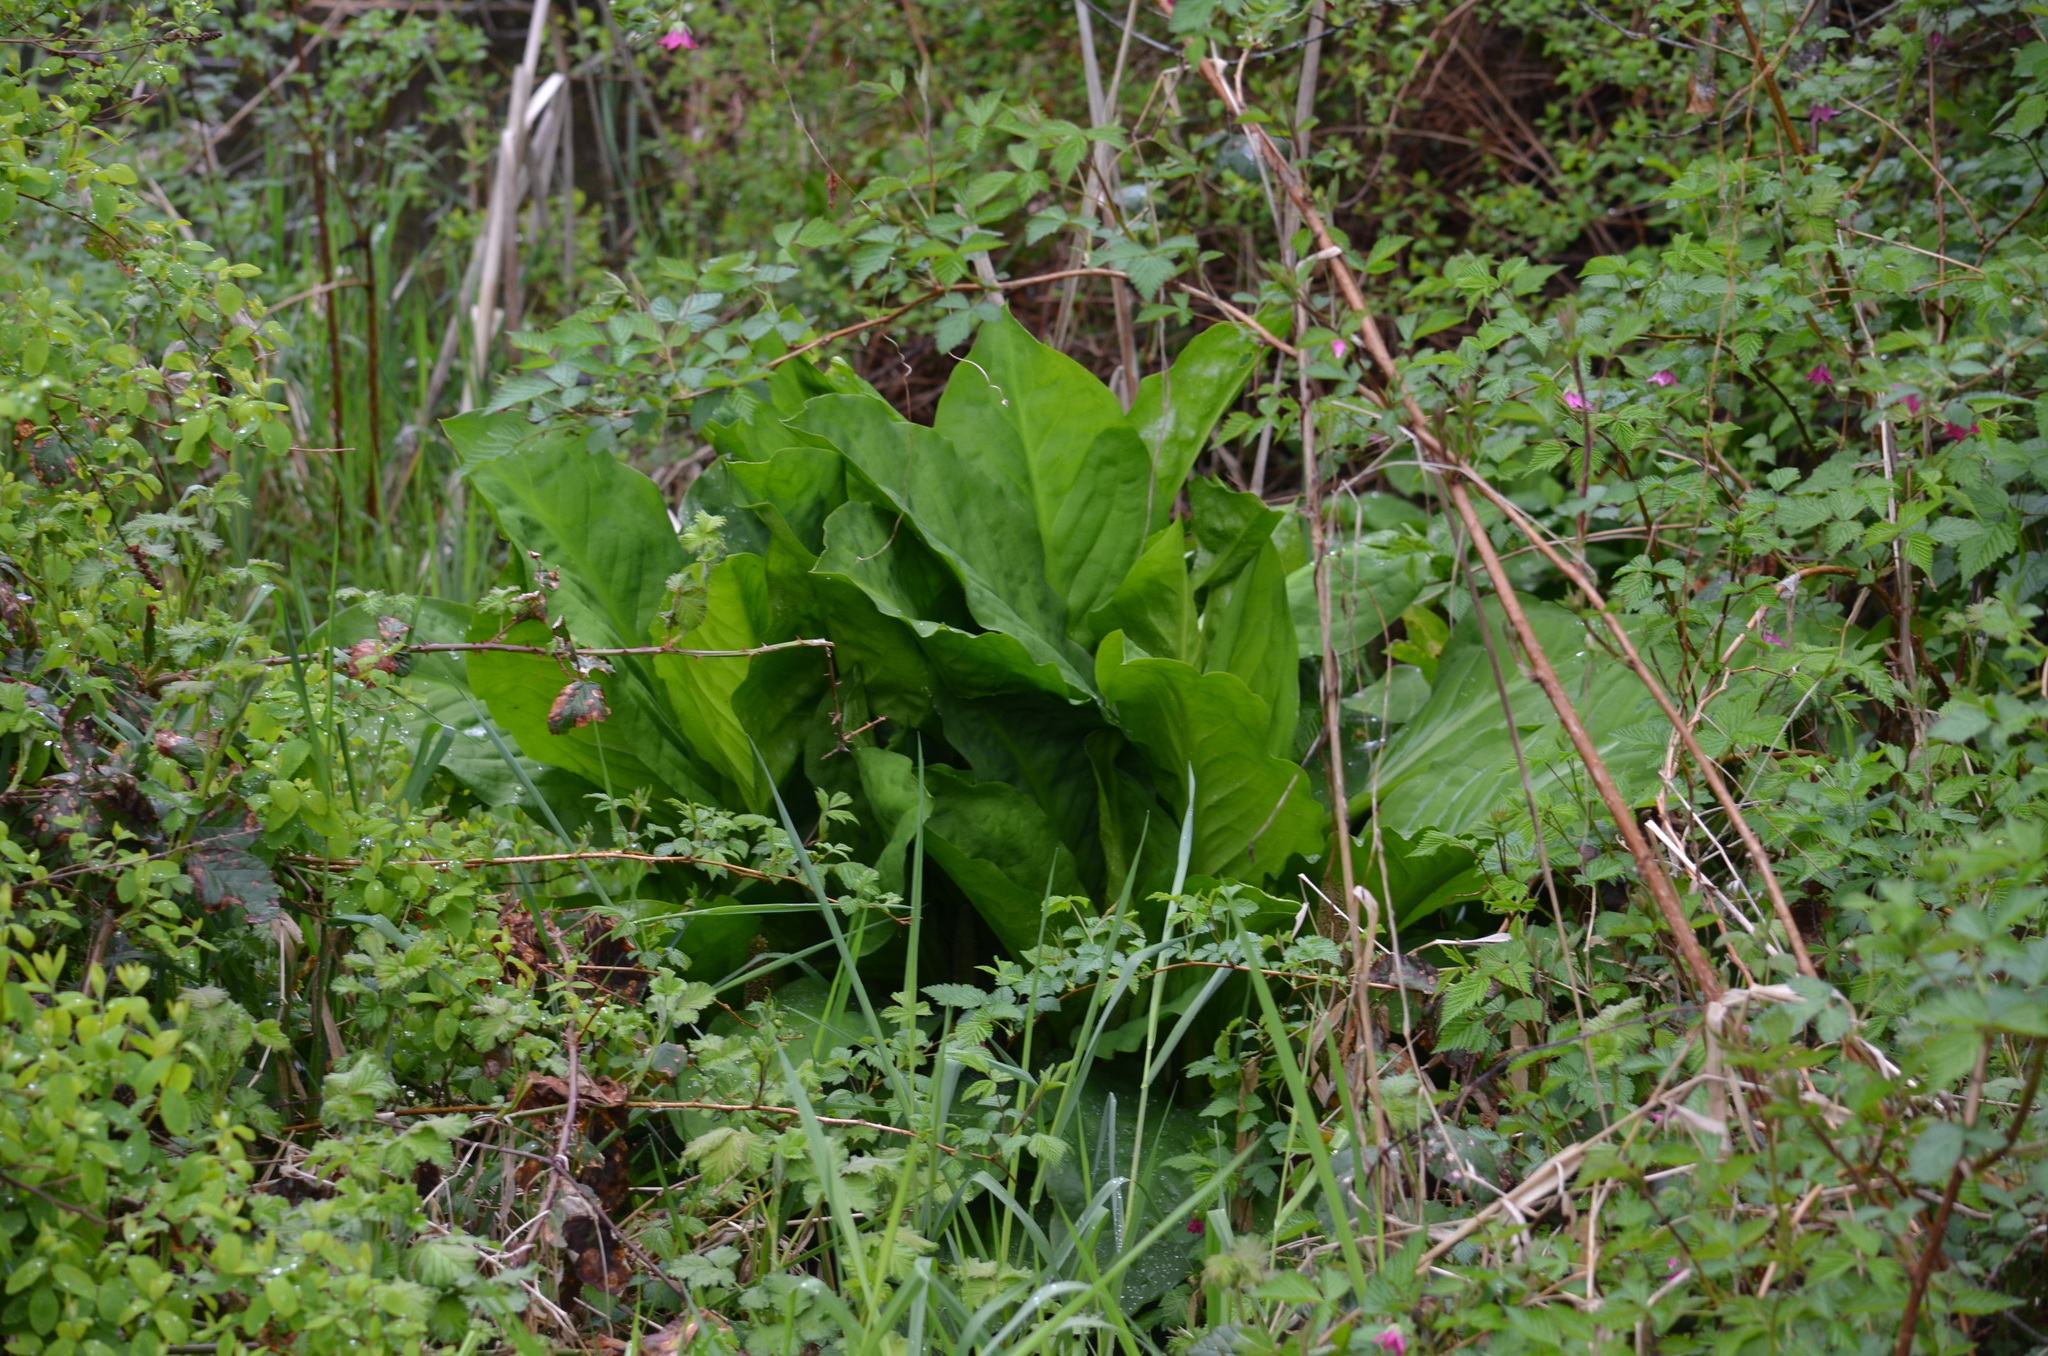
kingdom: Plantae
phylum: Tracheophyta
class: Liliopsida
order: Alismatales
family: Araceae
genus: Lysichiton
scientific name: Lysichiton americanus
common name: American skunk cabbage
